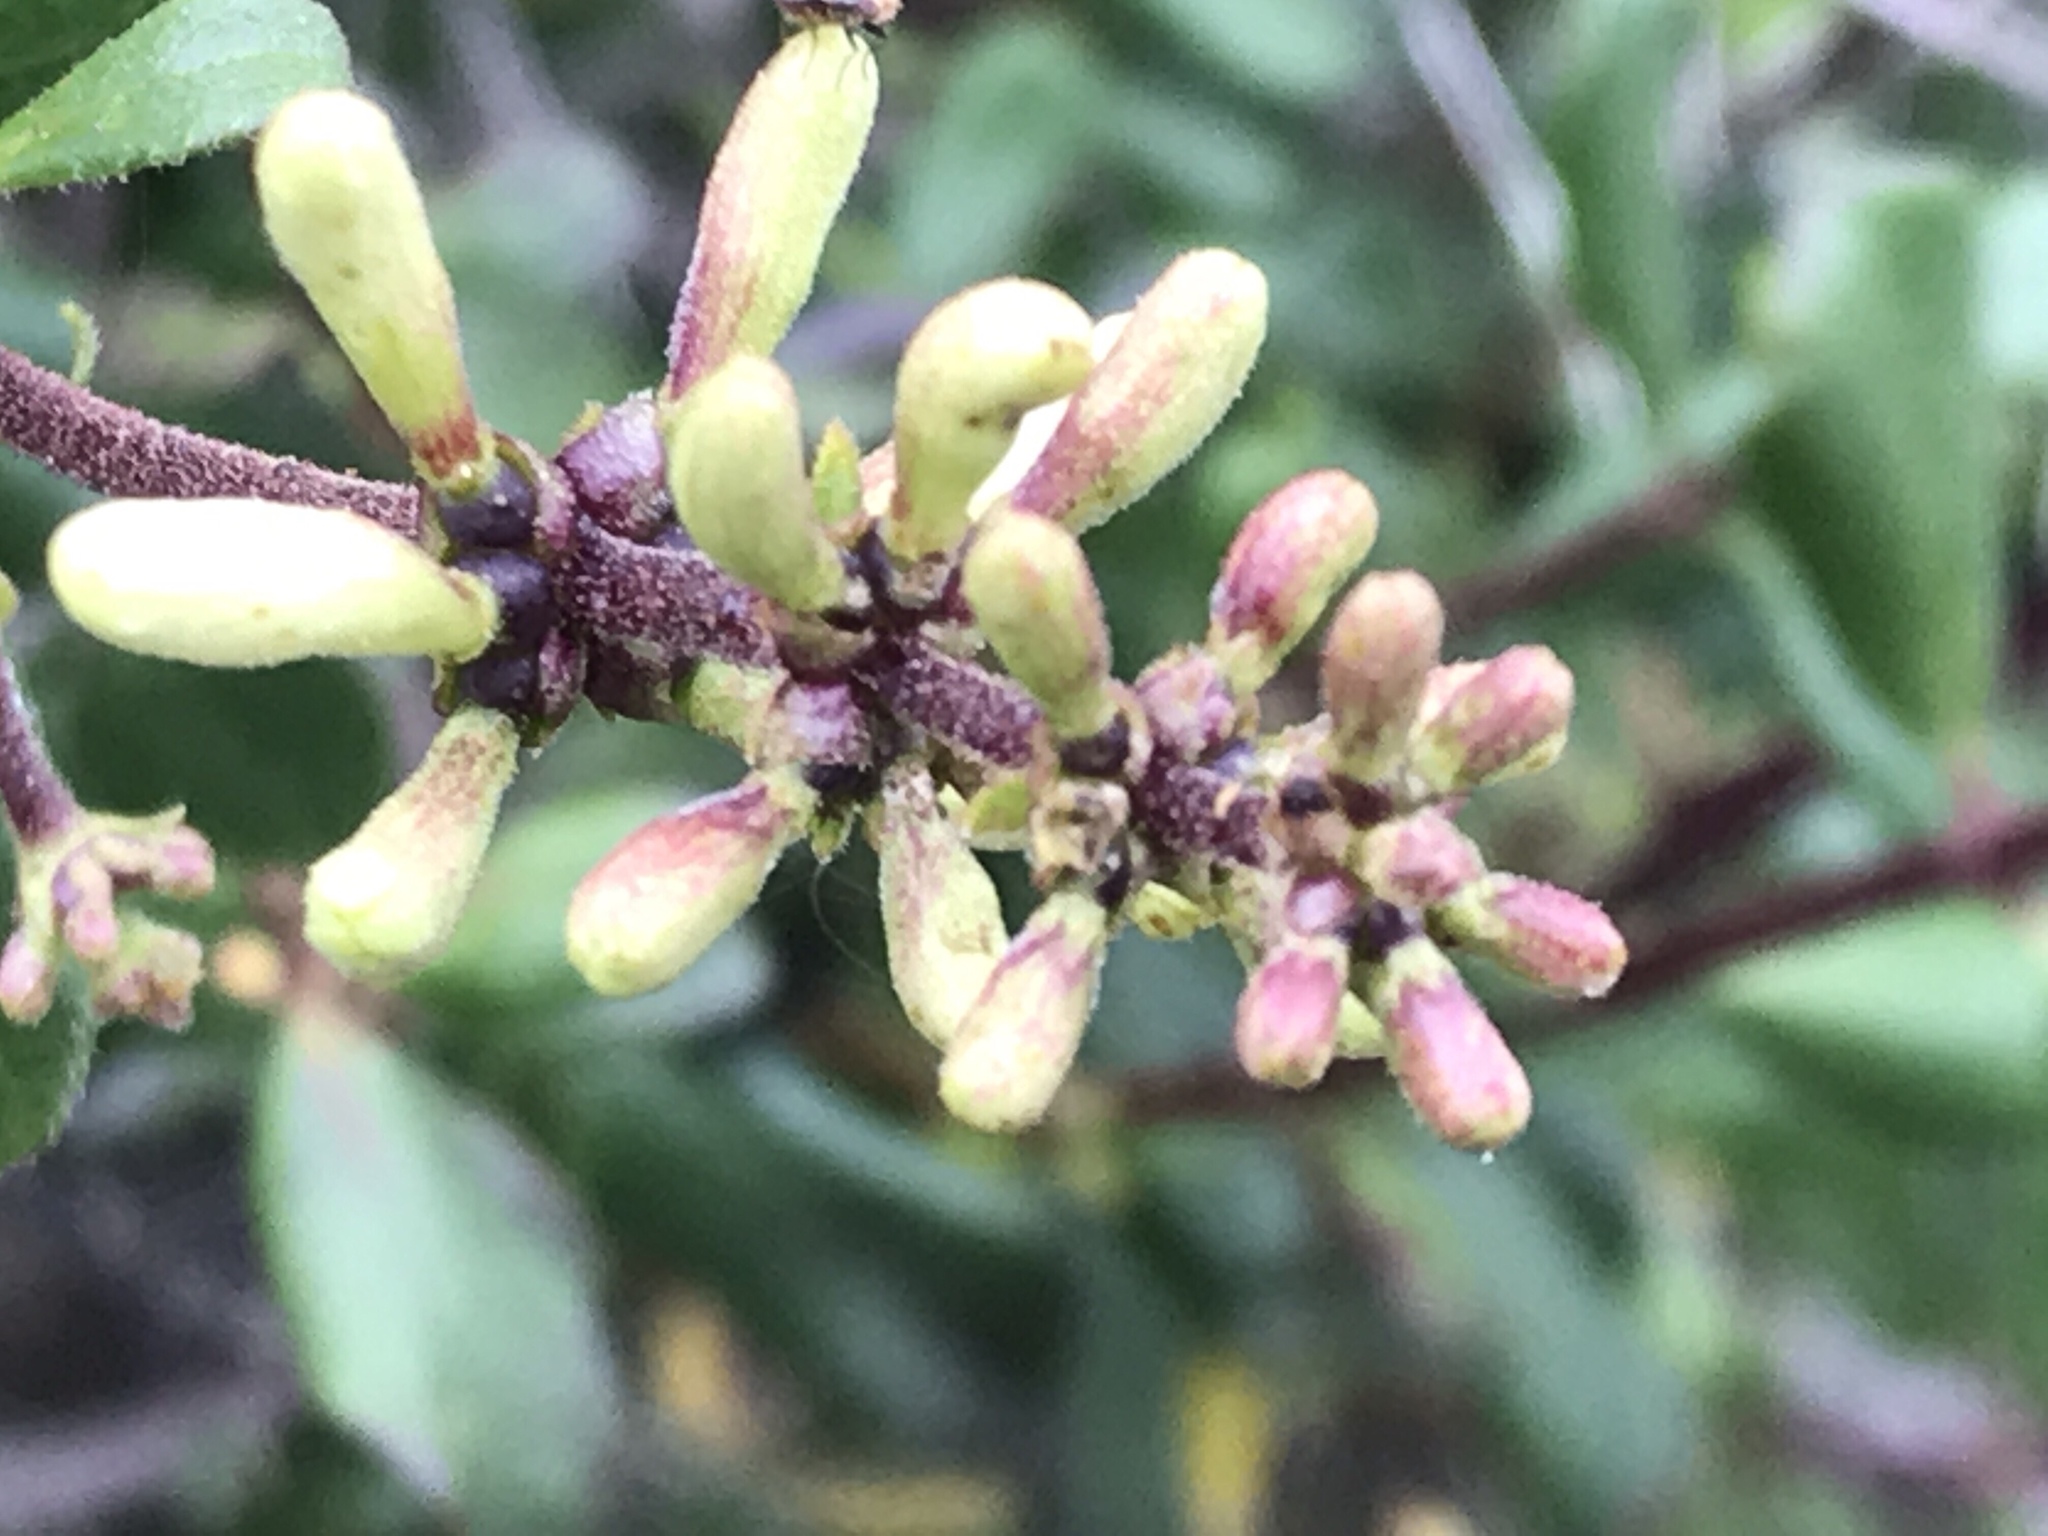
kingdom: Plantae
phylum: Tracheophyta
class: Magnoliopsida
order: Dipsacales
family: Caprifoliaceae
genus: Lonicera
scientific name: Lonicera subspicata
